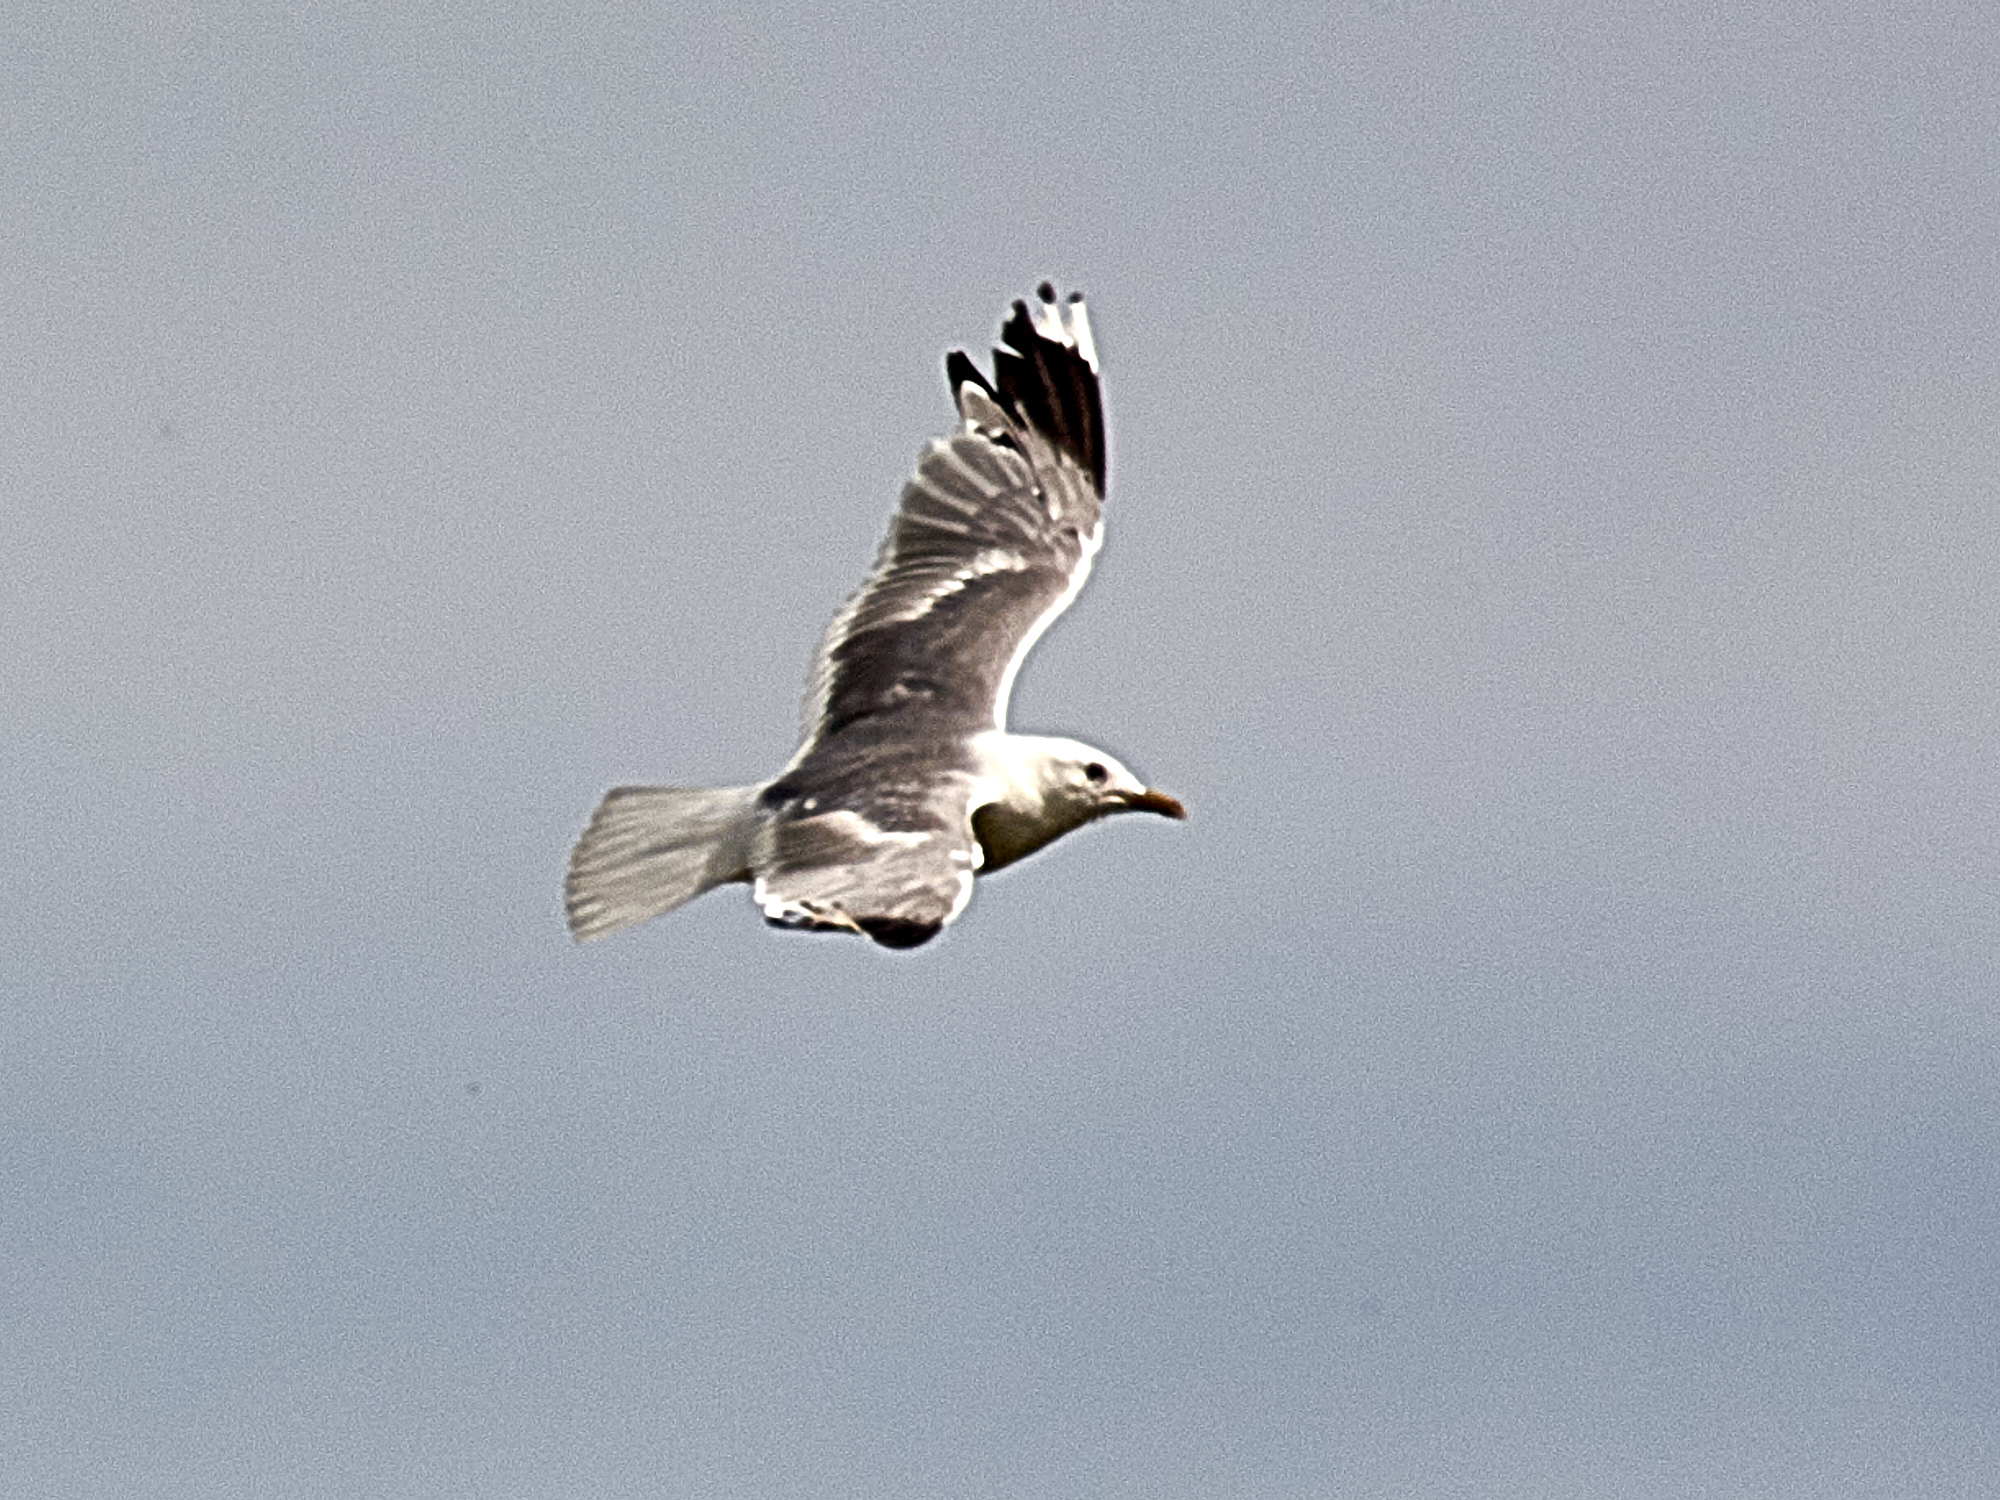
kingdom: Animalia
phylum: Chordata
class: Aves
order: Charadriiformes
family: Laridae
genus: Larus
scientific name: Larus canus
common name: Mew gull
